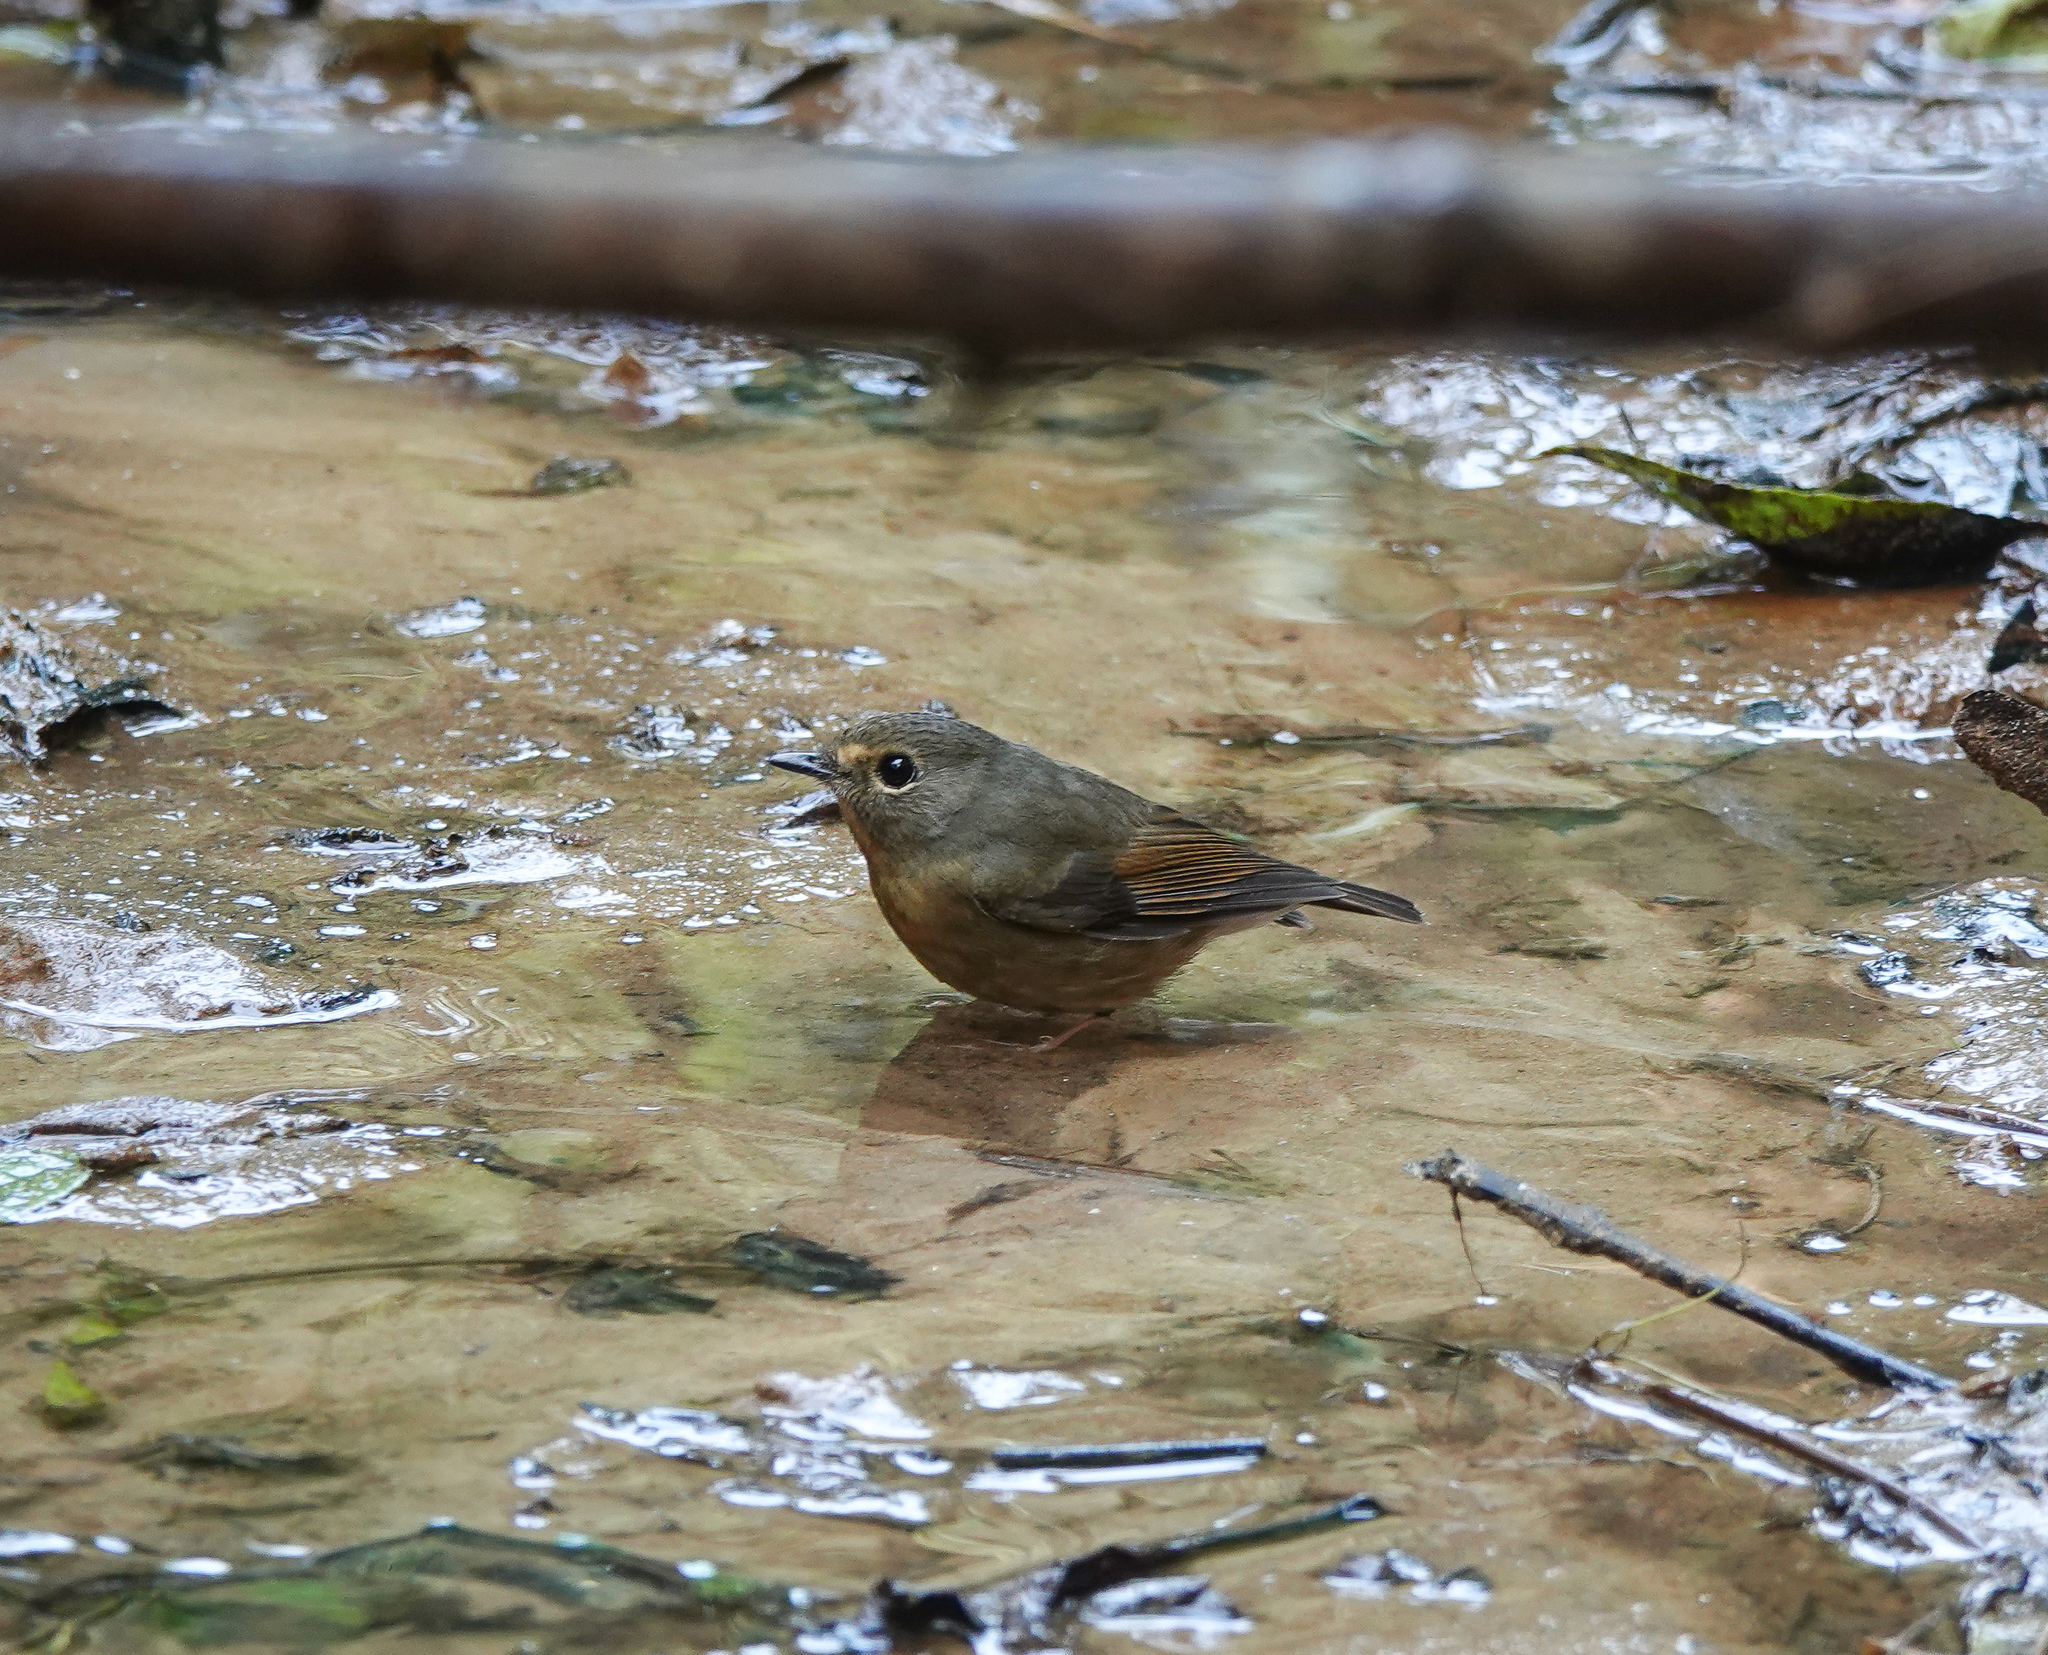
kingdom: Animalia
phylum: Chordata
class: Aves
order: Passeriformes
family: Muscicapidae
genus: Ficedula
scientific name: Ficedula hyperythra
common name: Snowy-browed flycatcher
